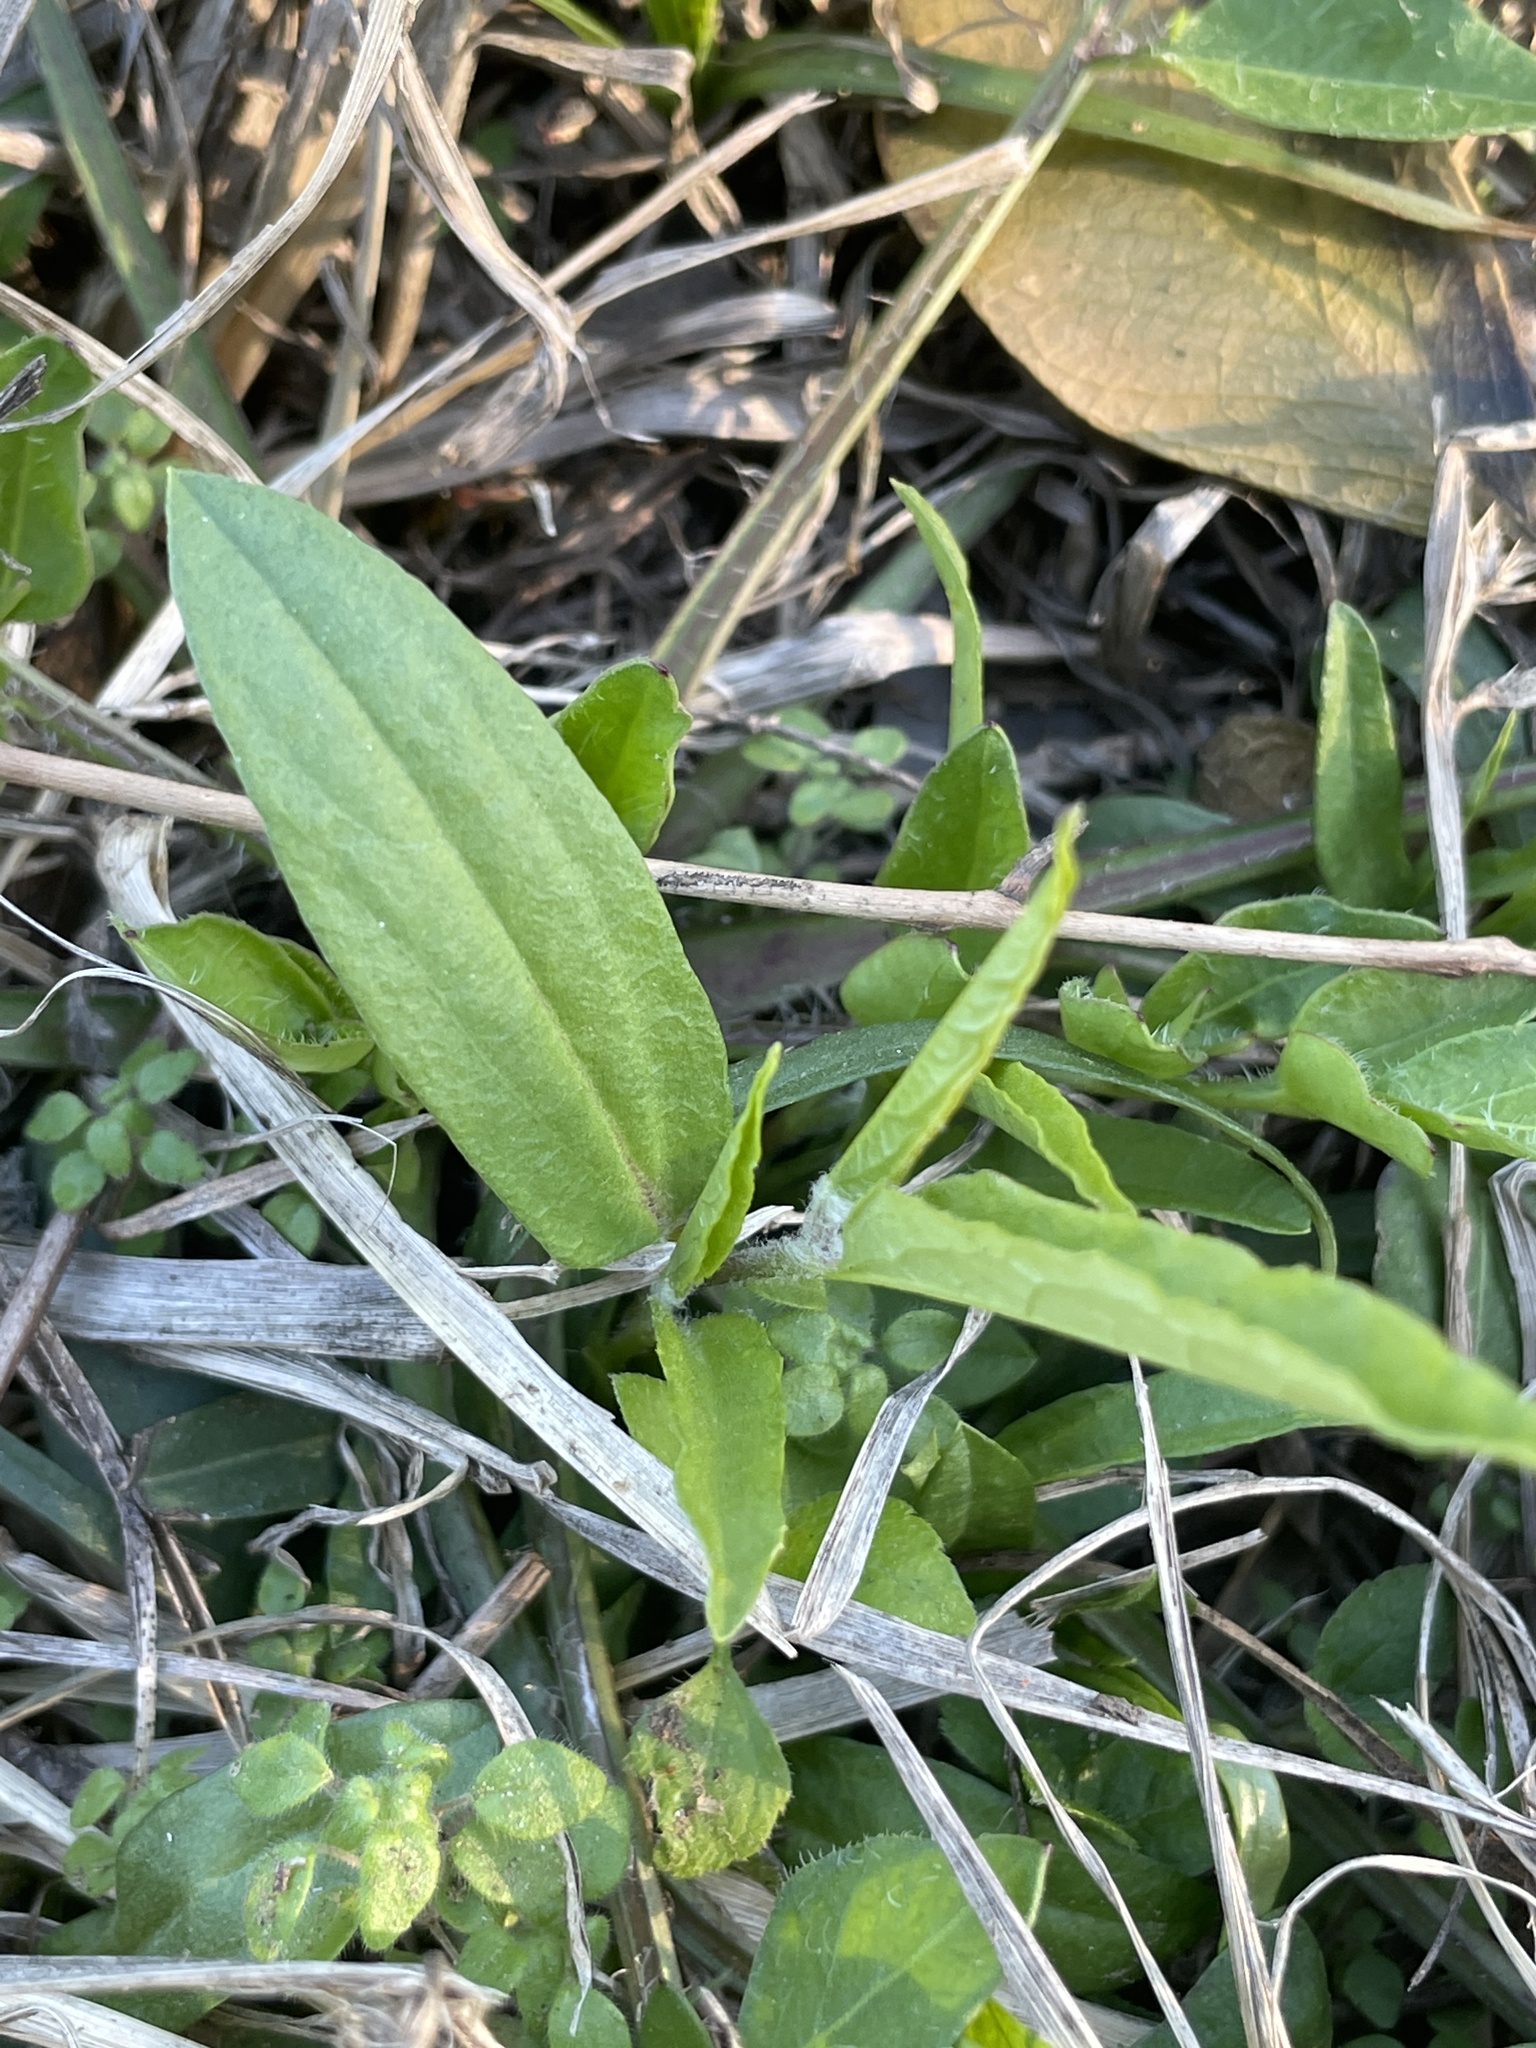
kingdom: Plantae
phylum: Tracheophyta
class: Magnoliopsida
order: Piperales
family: Aristolochiaceae
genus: Aristolochia
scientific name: Aristolochia erecta
